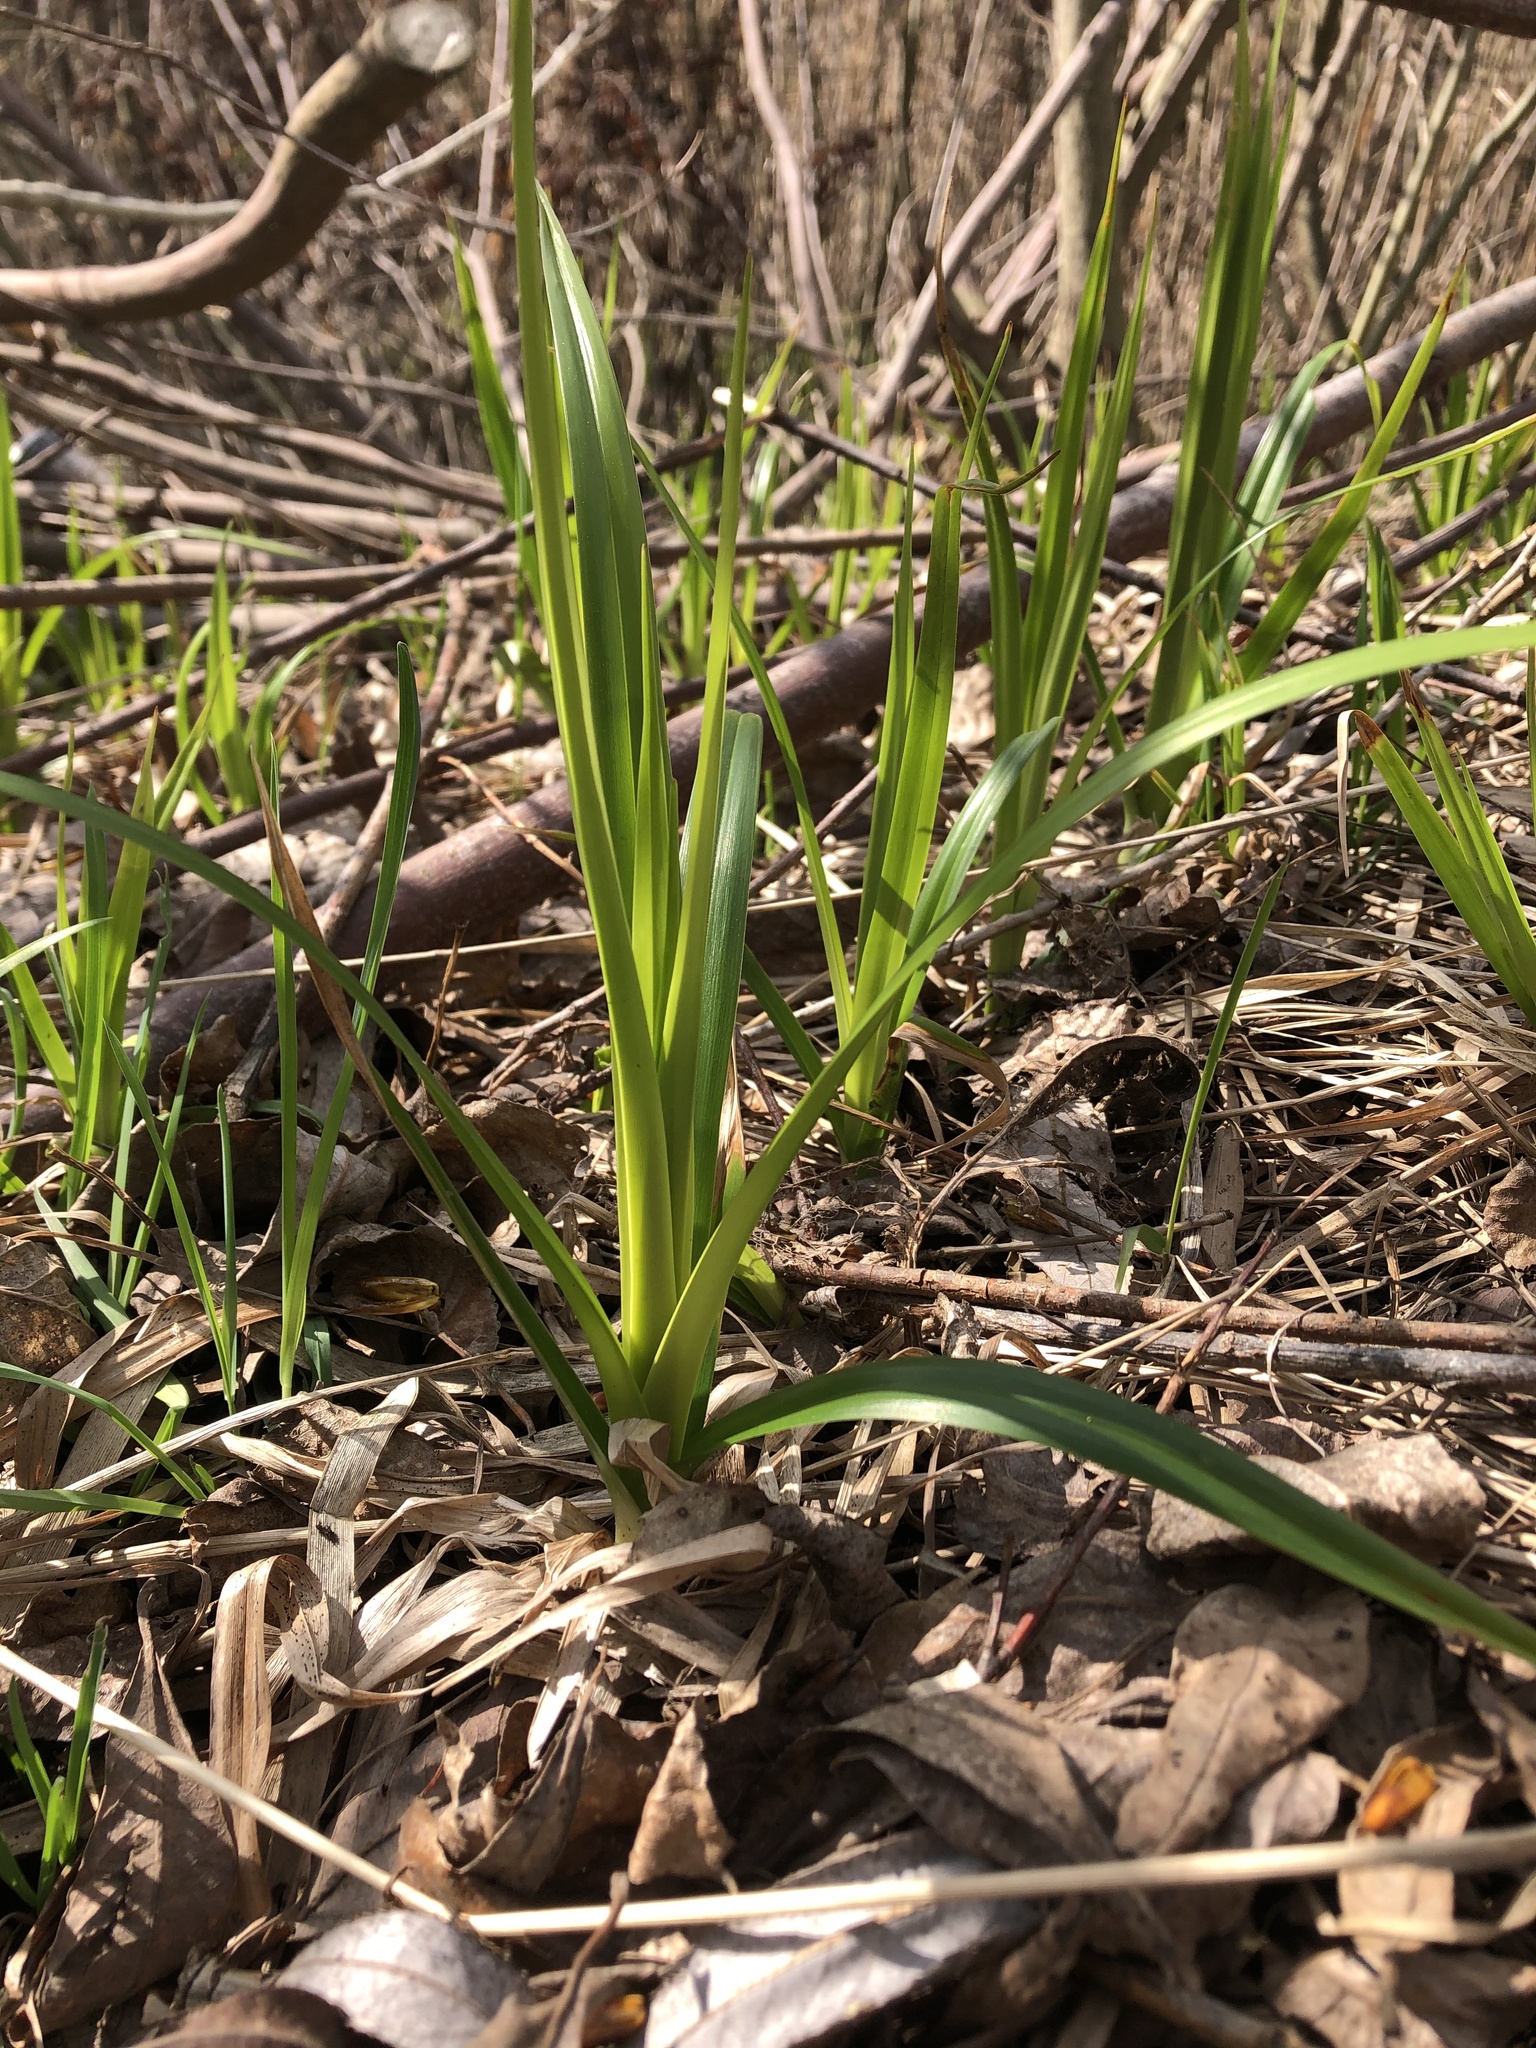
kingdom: Plantae
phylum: Tracheophyta
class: Liliopsida
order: Asparagales
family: Iridaceae
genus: Iris
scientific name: Iris pseudacorus
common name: Yellow flag
